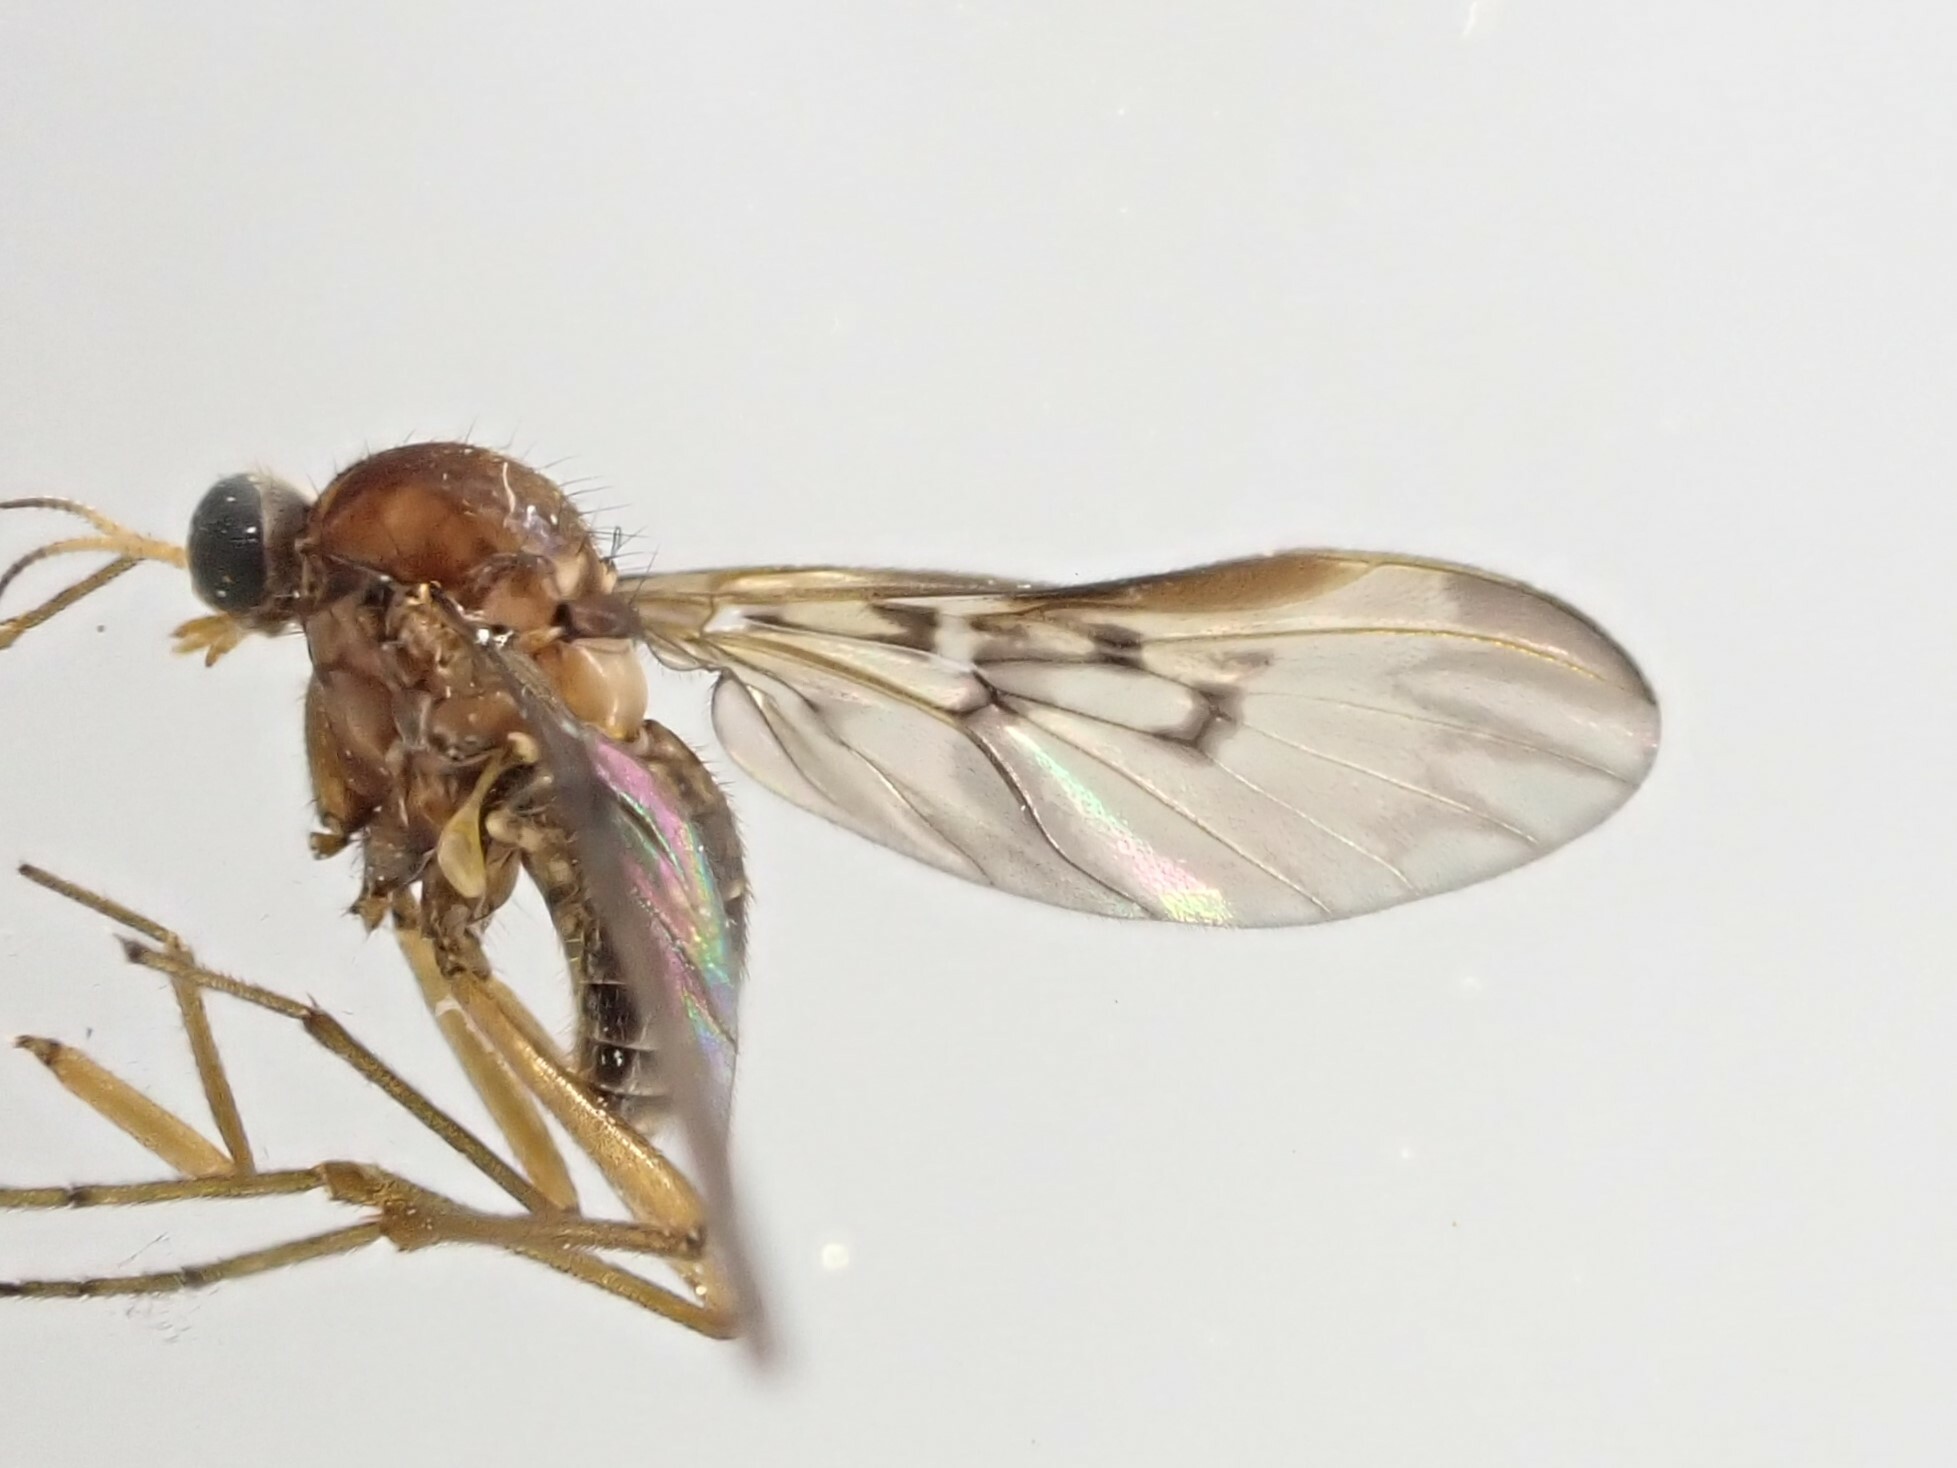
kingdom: Animalia
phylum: Arthropoda
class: Insecta
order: Diptera
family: Anisopodidae
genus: Sylvicola
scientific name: Sylvicola neozelandicus
